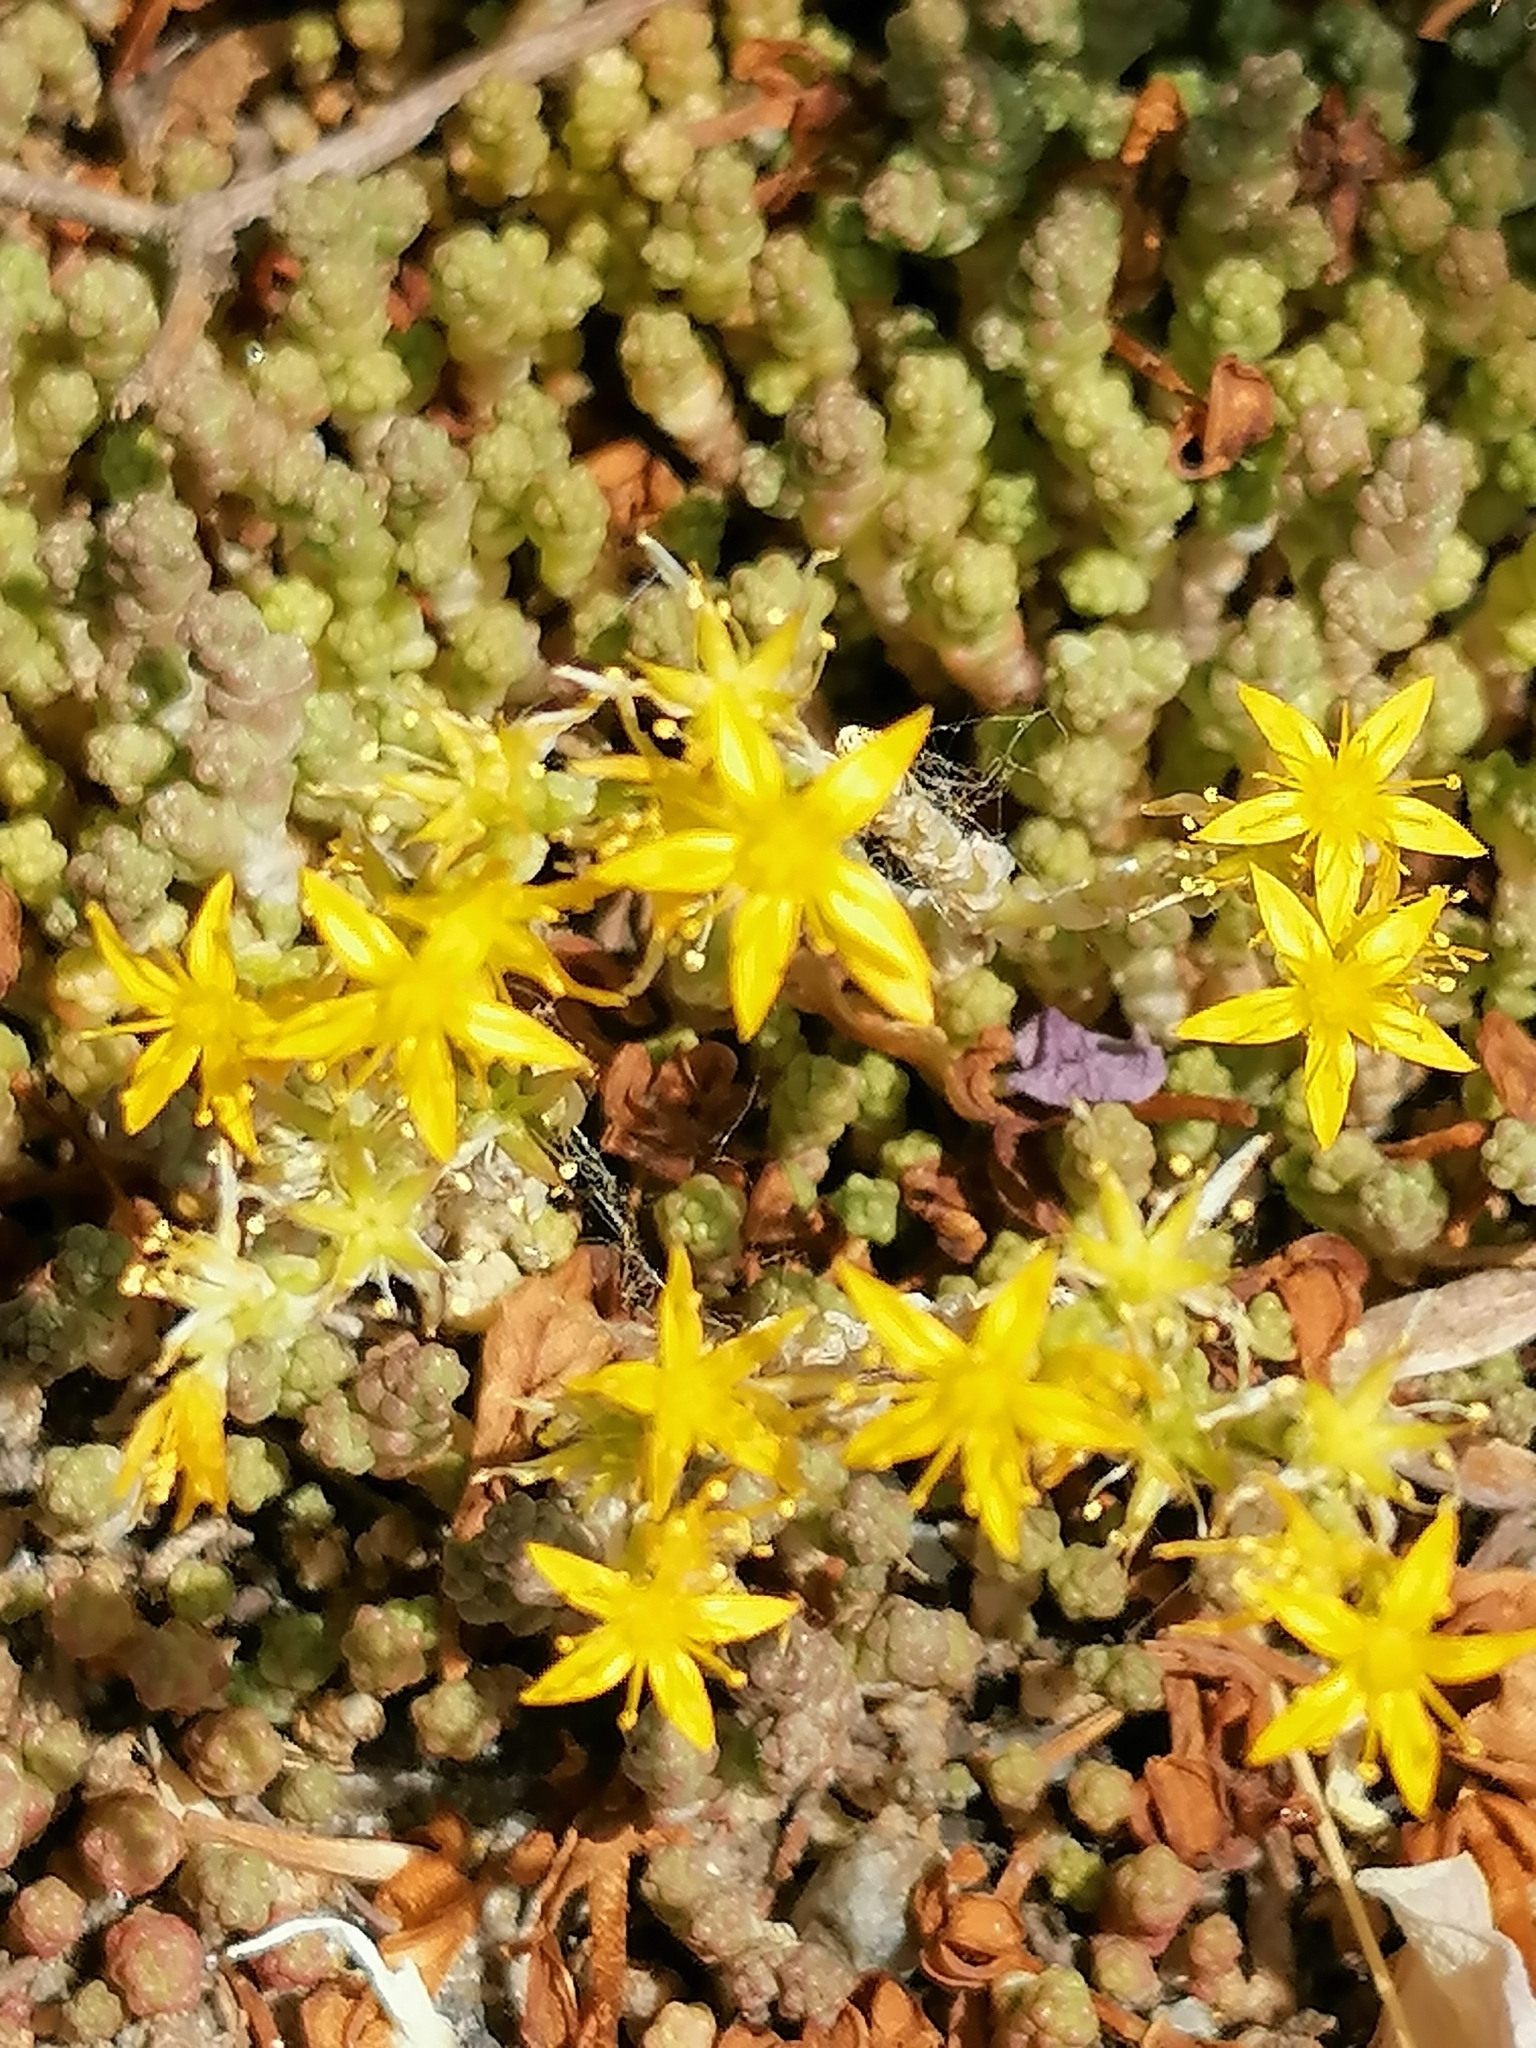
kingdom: Plantae
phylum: Tracheophyta
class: Magnoliopsida
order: Saxifragales
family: Crassulaceae
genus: Sedum
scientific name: Sedum acre
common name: Biting stonecrop
